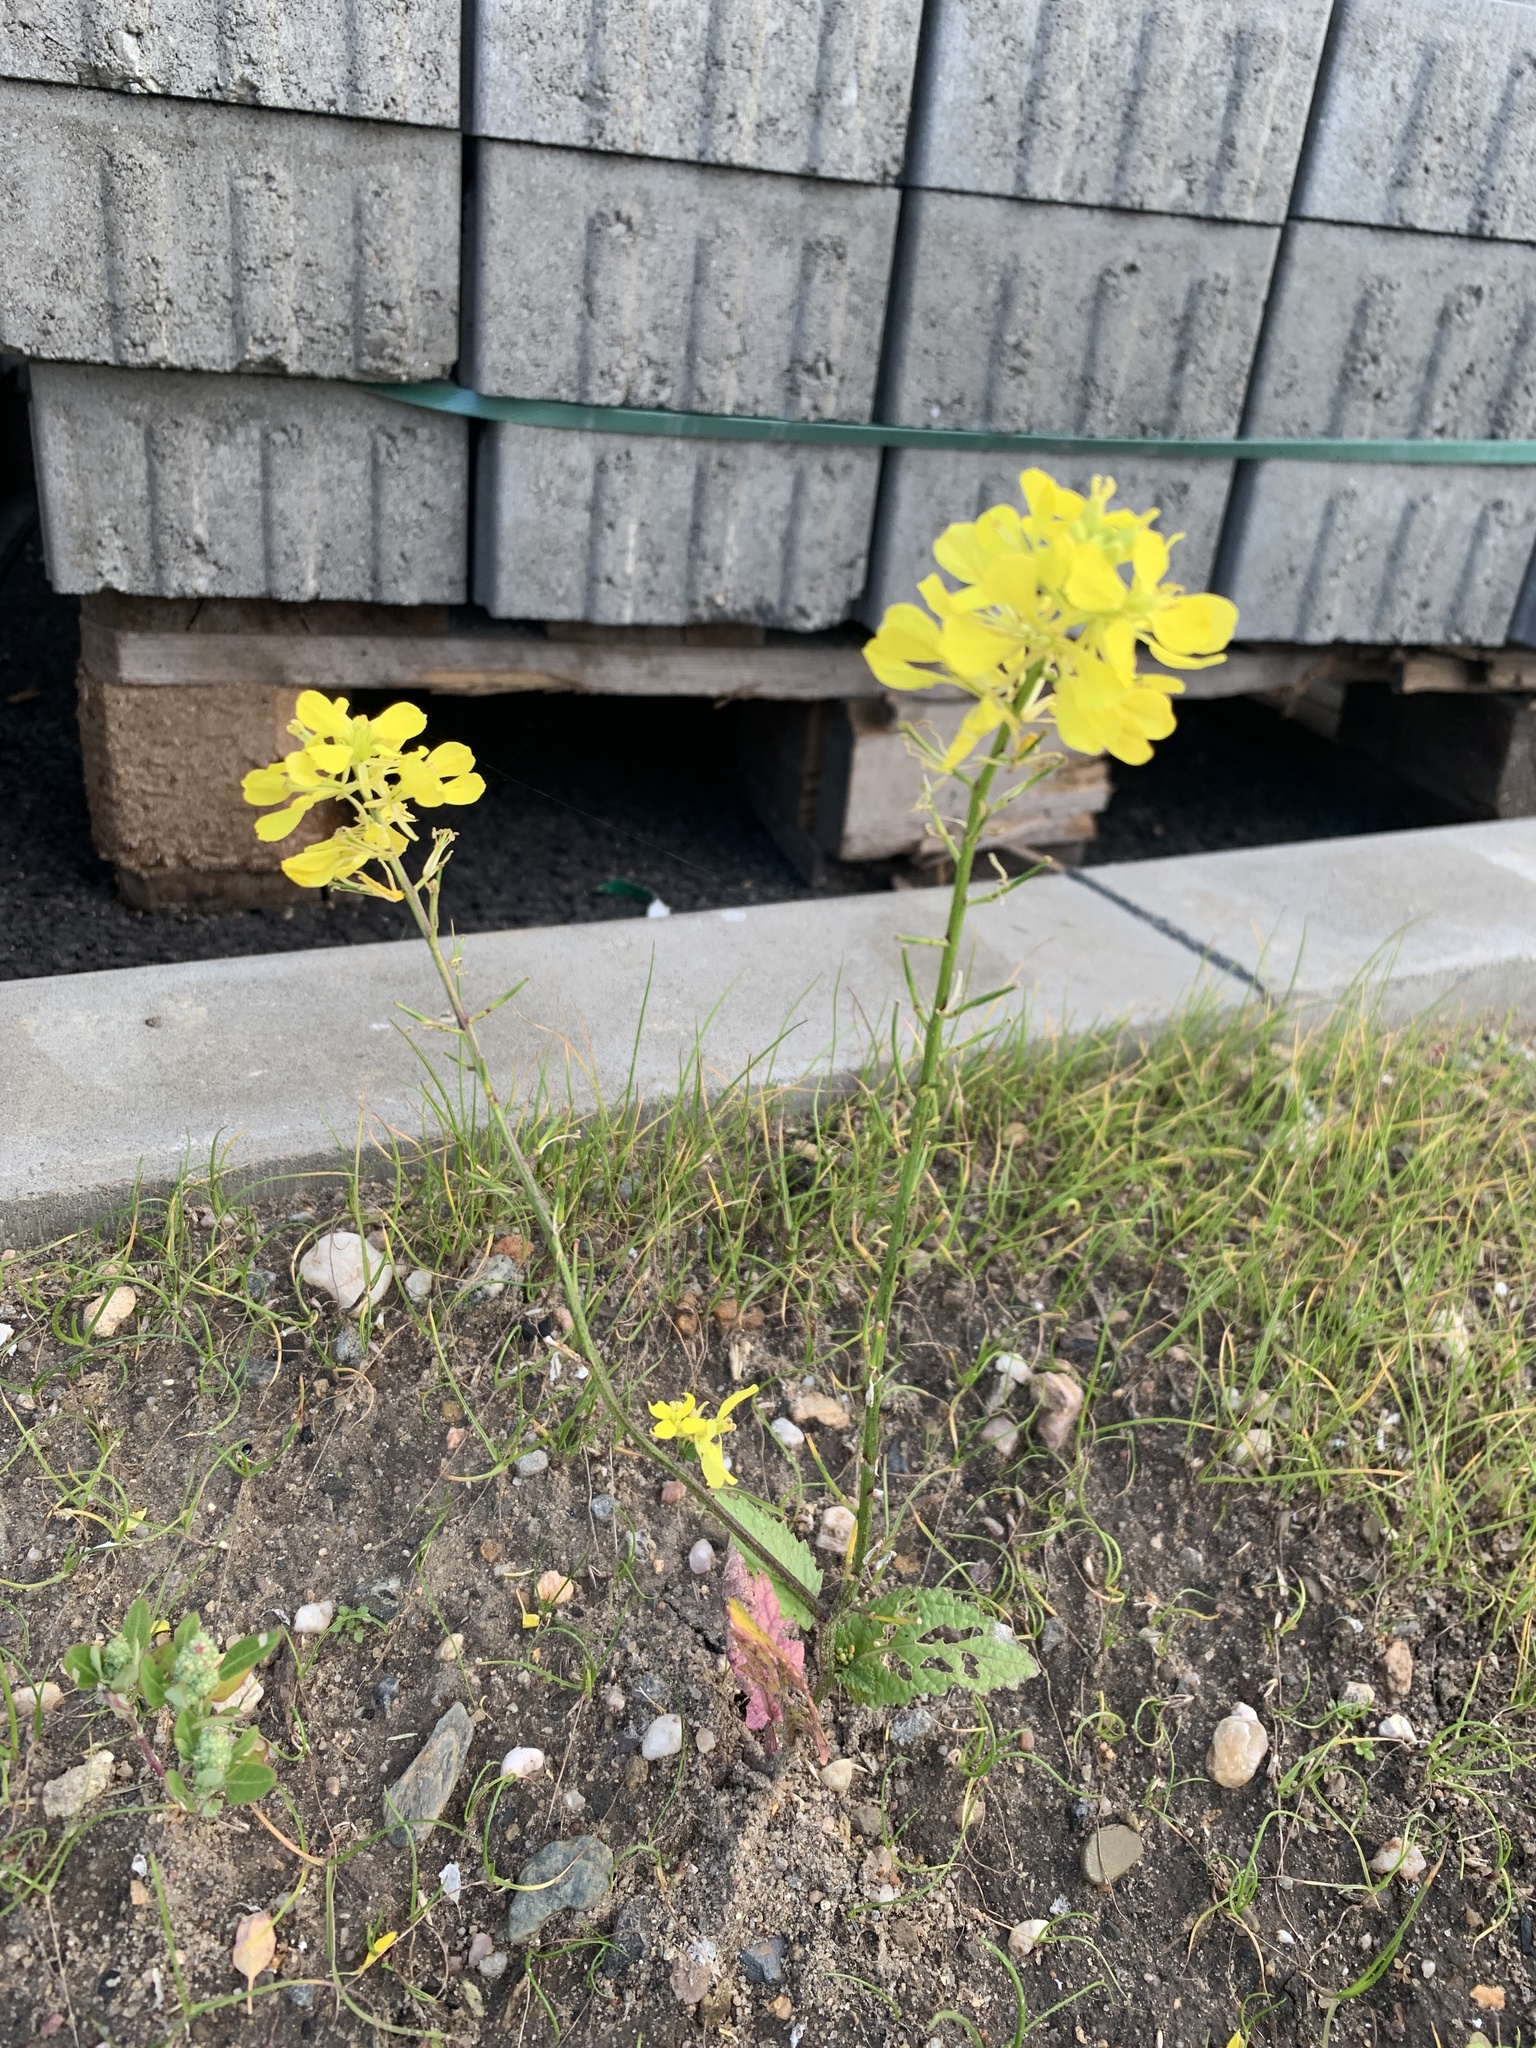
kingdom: Plantae
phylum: Tracheophyta
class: Magnoliopsida
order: Brassicales
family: Brassicaceae
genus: Sinapis
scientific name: Sinapis arvensis
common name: Charlock
